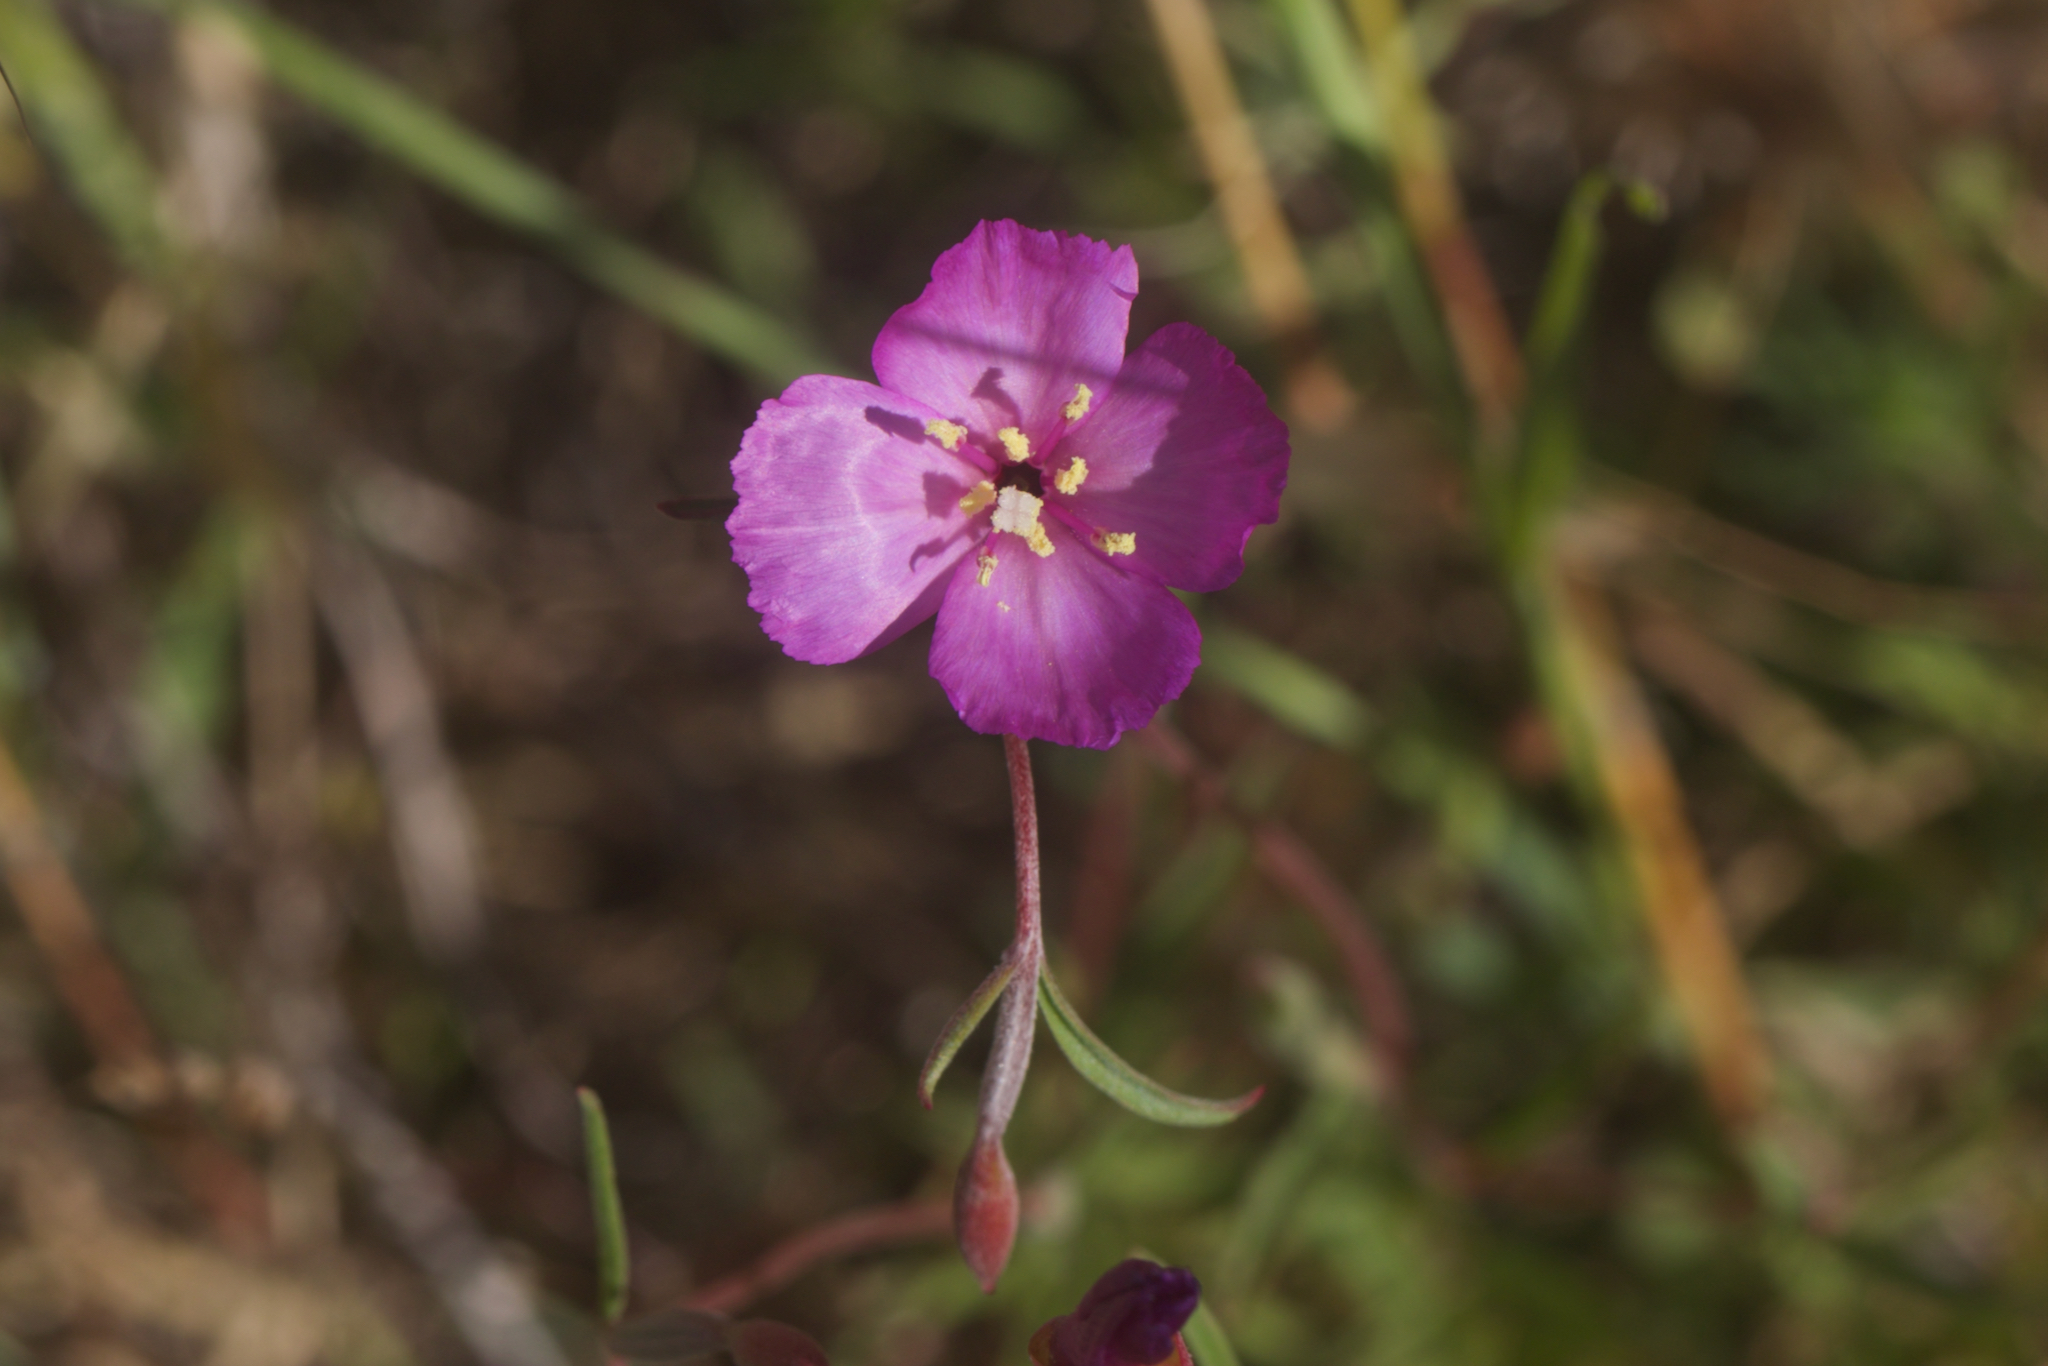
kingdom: Plantae
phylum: Tracheophyta
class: Magnoliopsida
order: Myrtales
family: Onagraceae
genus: Clarkia
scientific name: Clarkia gracilis
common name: Graceful clarkia
